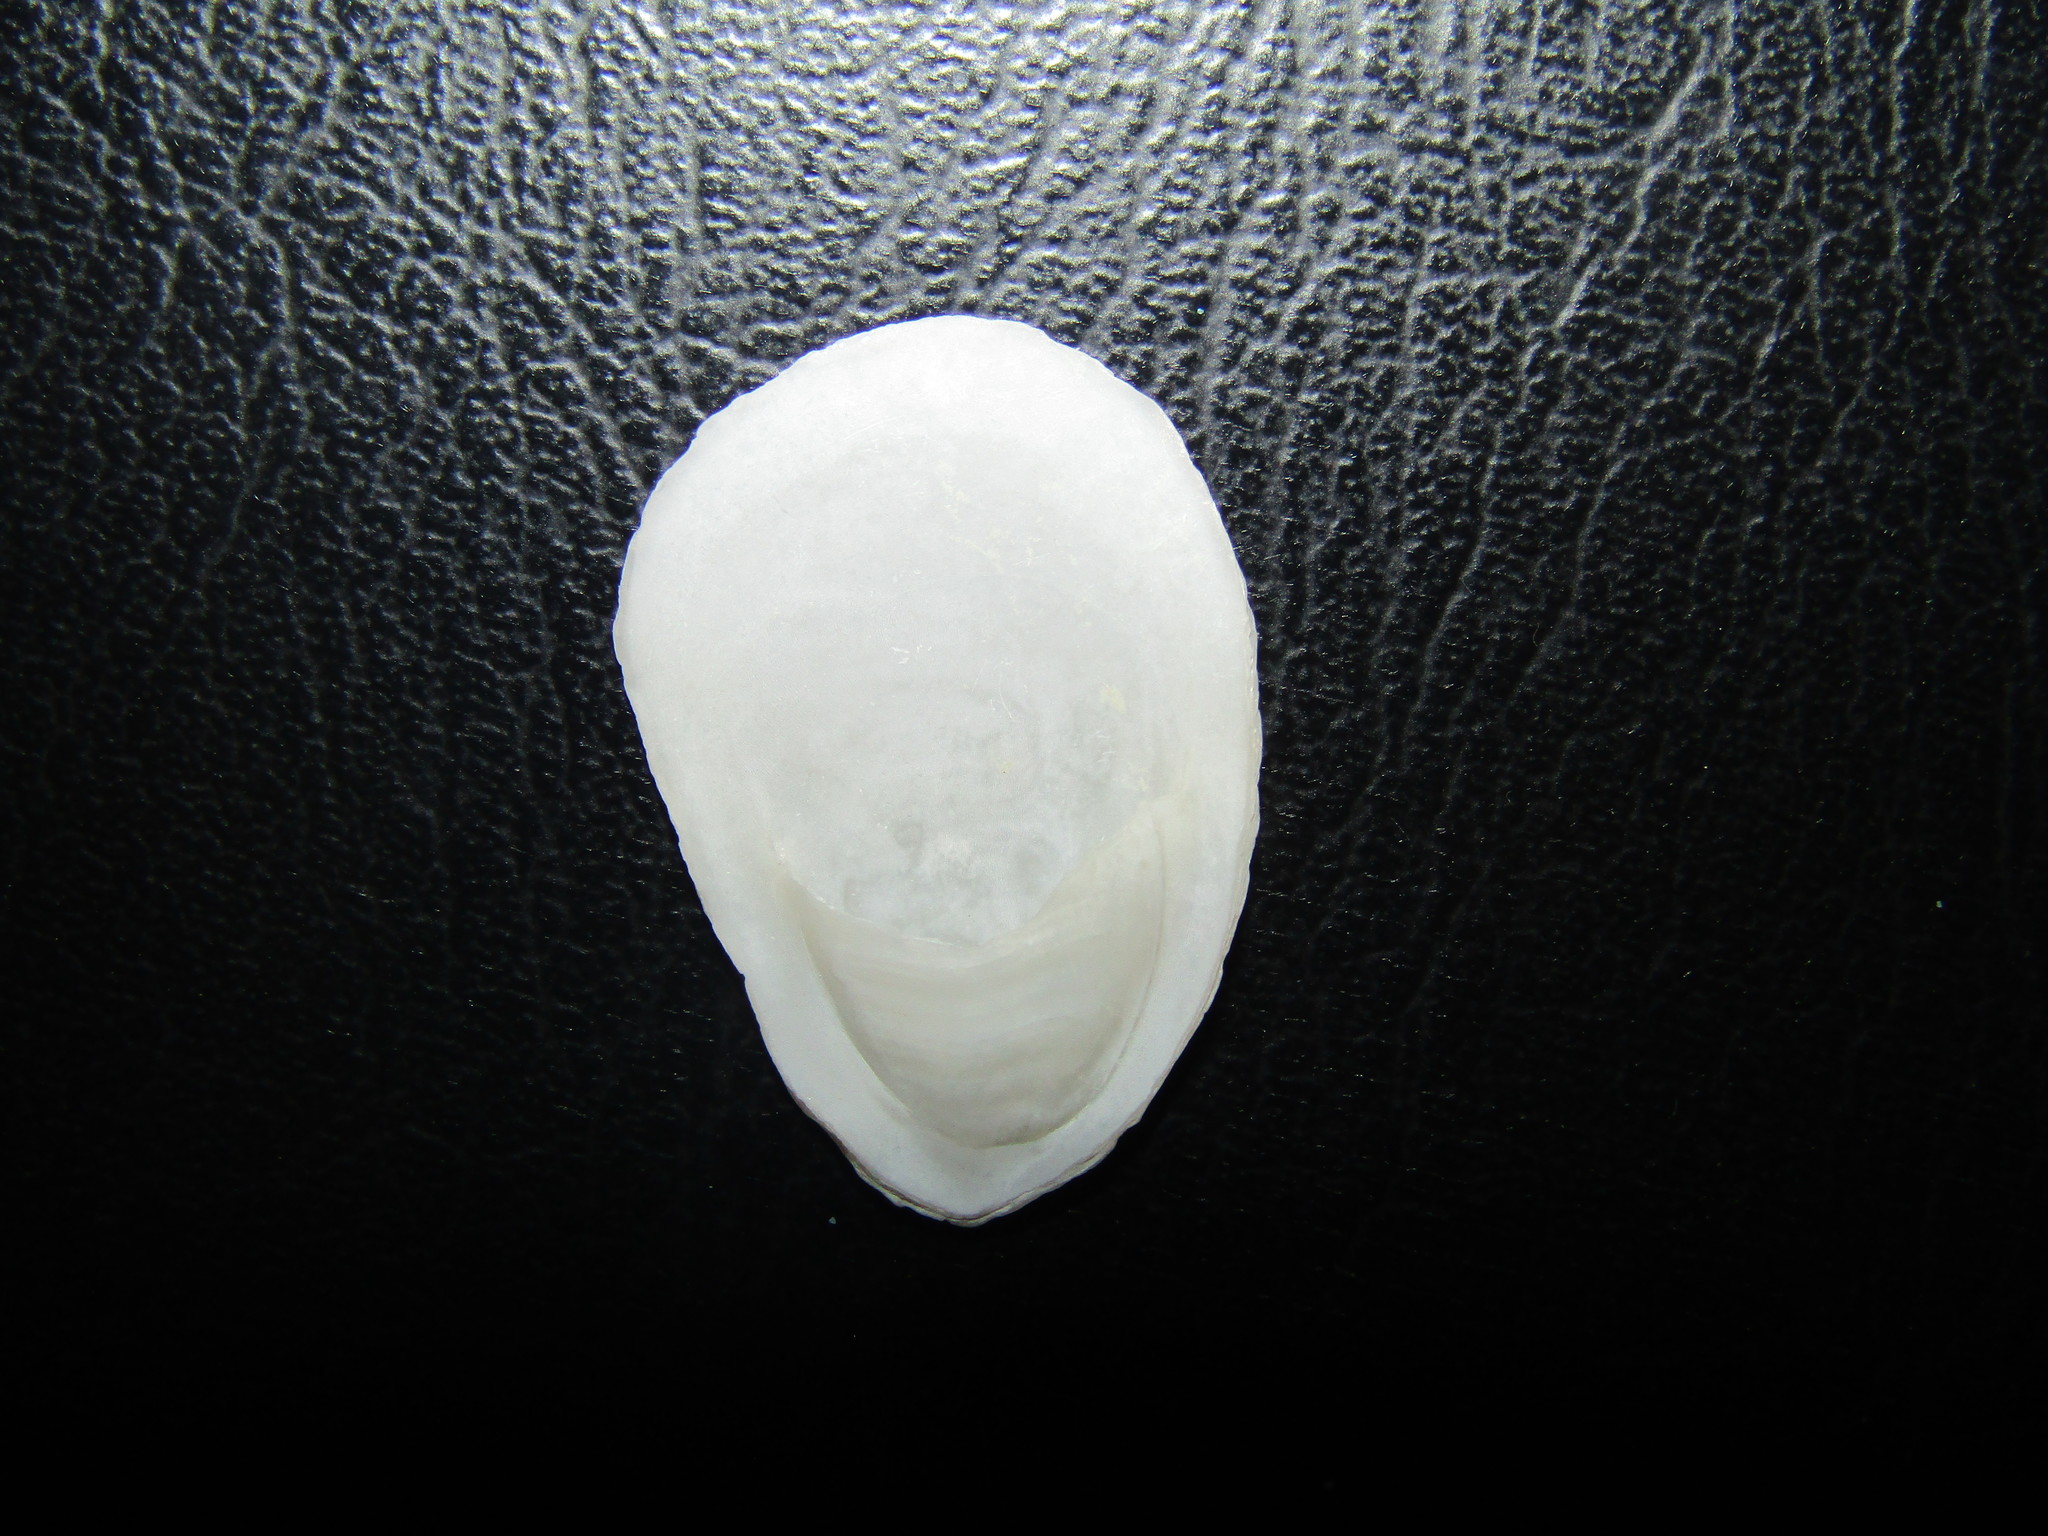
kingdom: Animalia
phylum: Mollusca
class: Gastropoda
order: Littorinimorpha
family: Calyptraeidae
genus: Crepidula
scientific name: Crepidula plana
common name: Eastern white slippersnail
